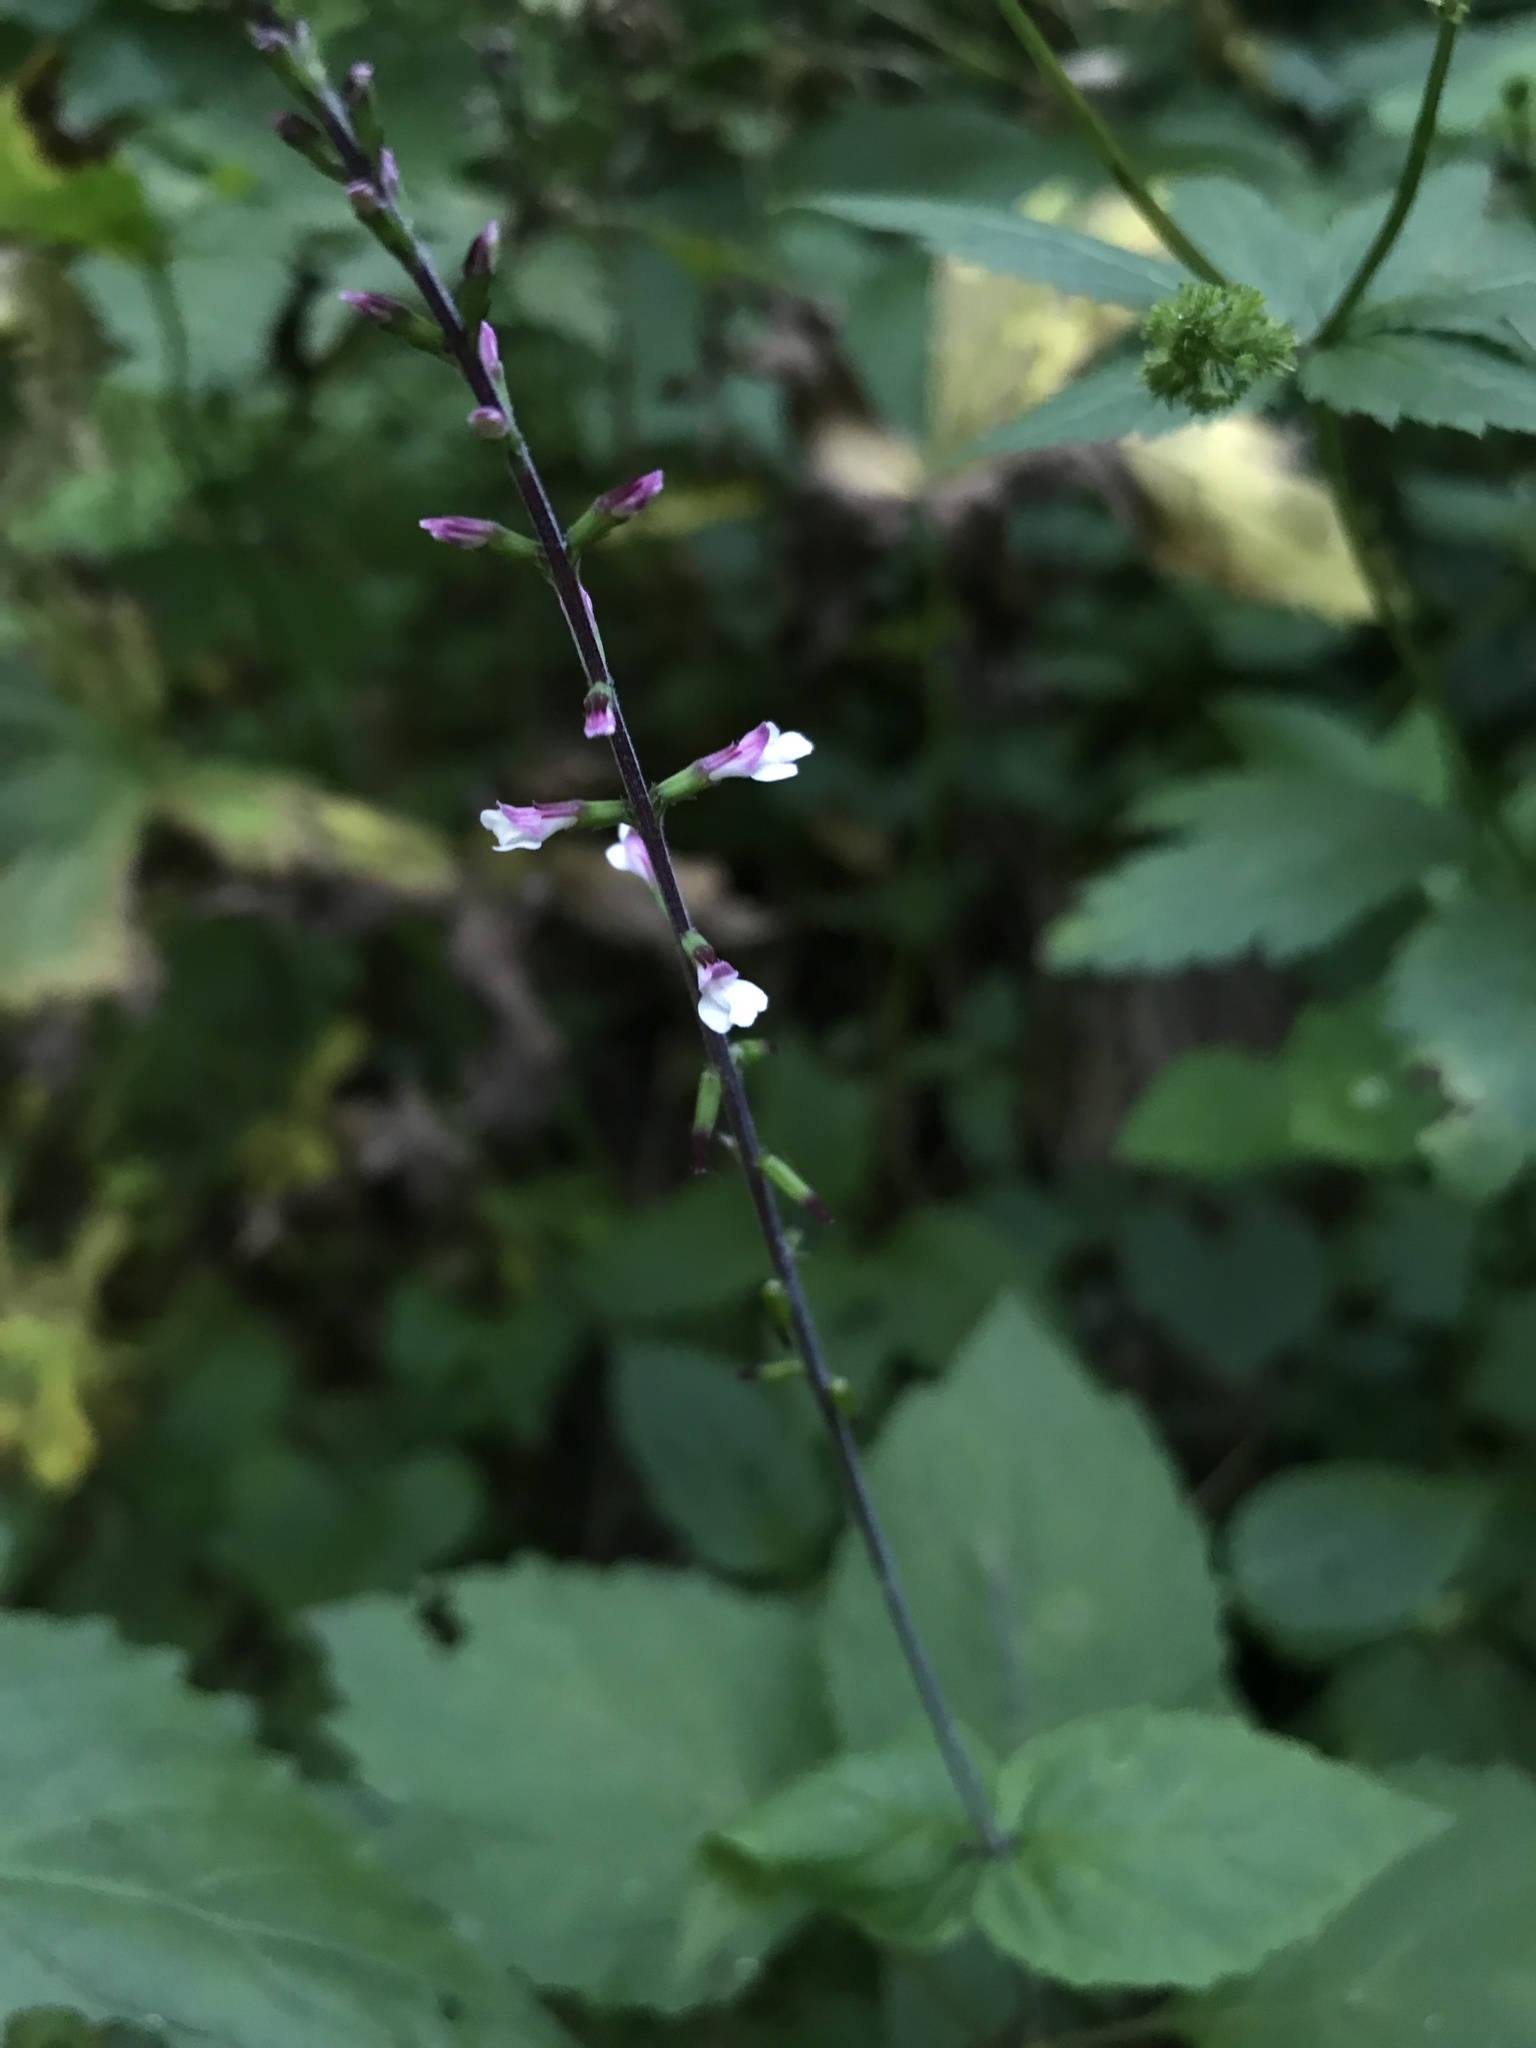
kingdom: Plantae
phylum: Tracheophyta
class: Magnoliopsida
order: Lamiales
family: Phrymaceae
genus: Phryma
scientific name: Phryma leptostachya
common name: American lopseed
